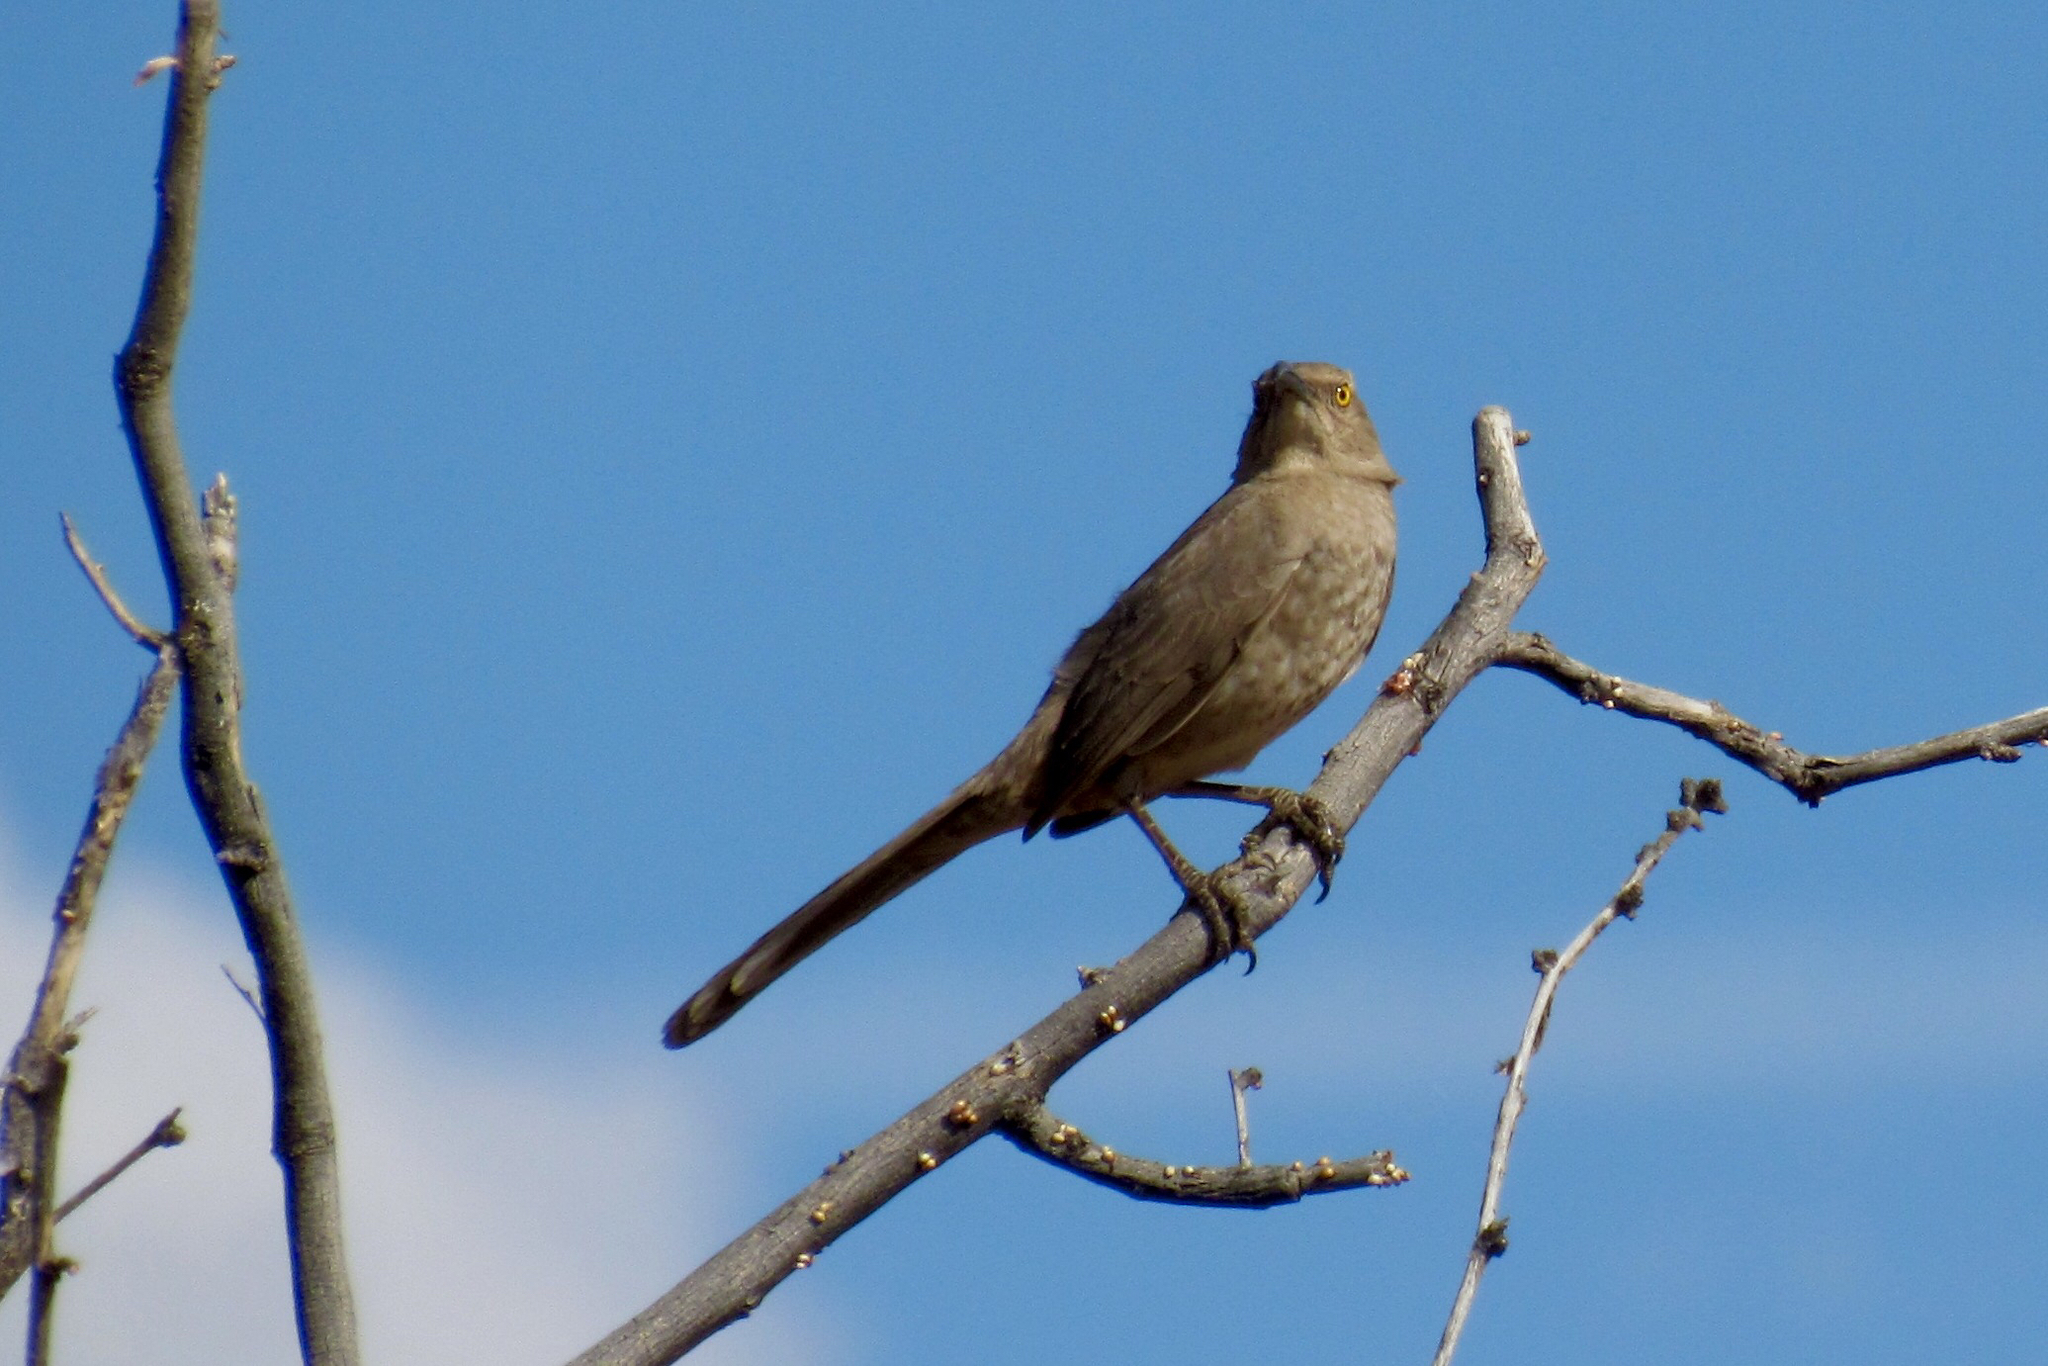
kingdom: Animalia
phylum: Chordata
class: Aves
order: Passeriformes
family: Mimidae
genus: Toxostoma
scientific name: Toxostoma curvirostre
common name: Curve-billed thrasher
